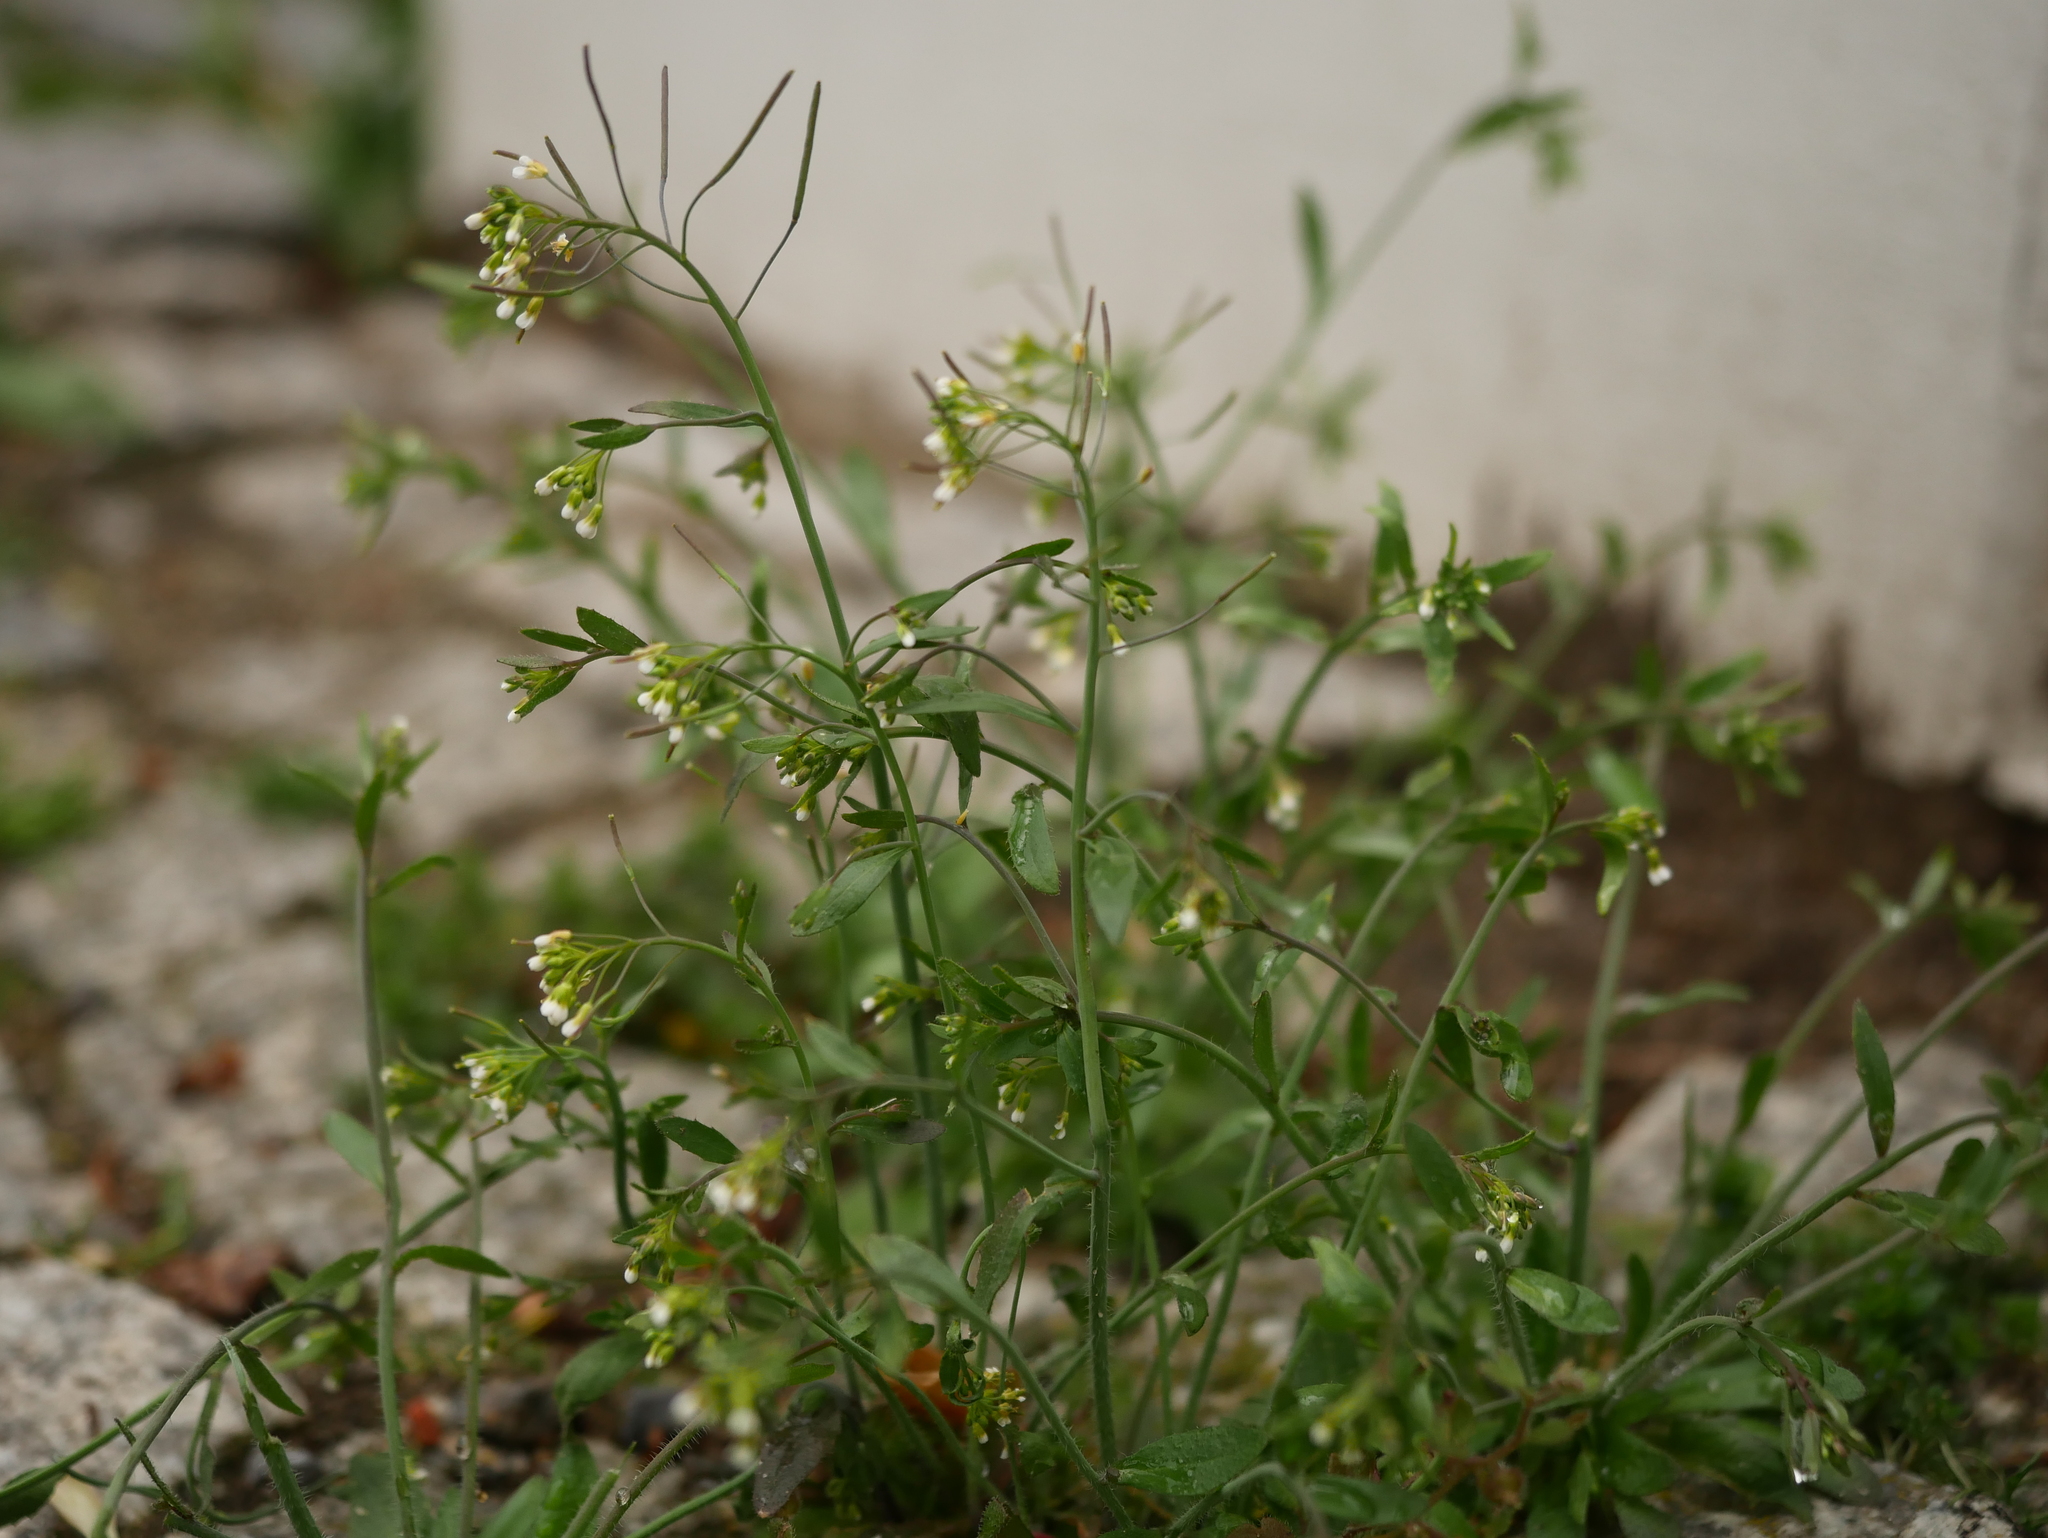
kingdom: Plantae
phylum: Tracheophyta
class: Magnoliopsida
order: Brassicales
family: Brassicaceae
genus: Arabidopsis
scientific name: Arabidopsis thaliana
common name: Thale cress
